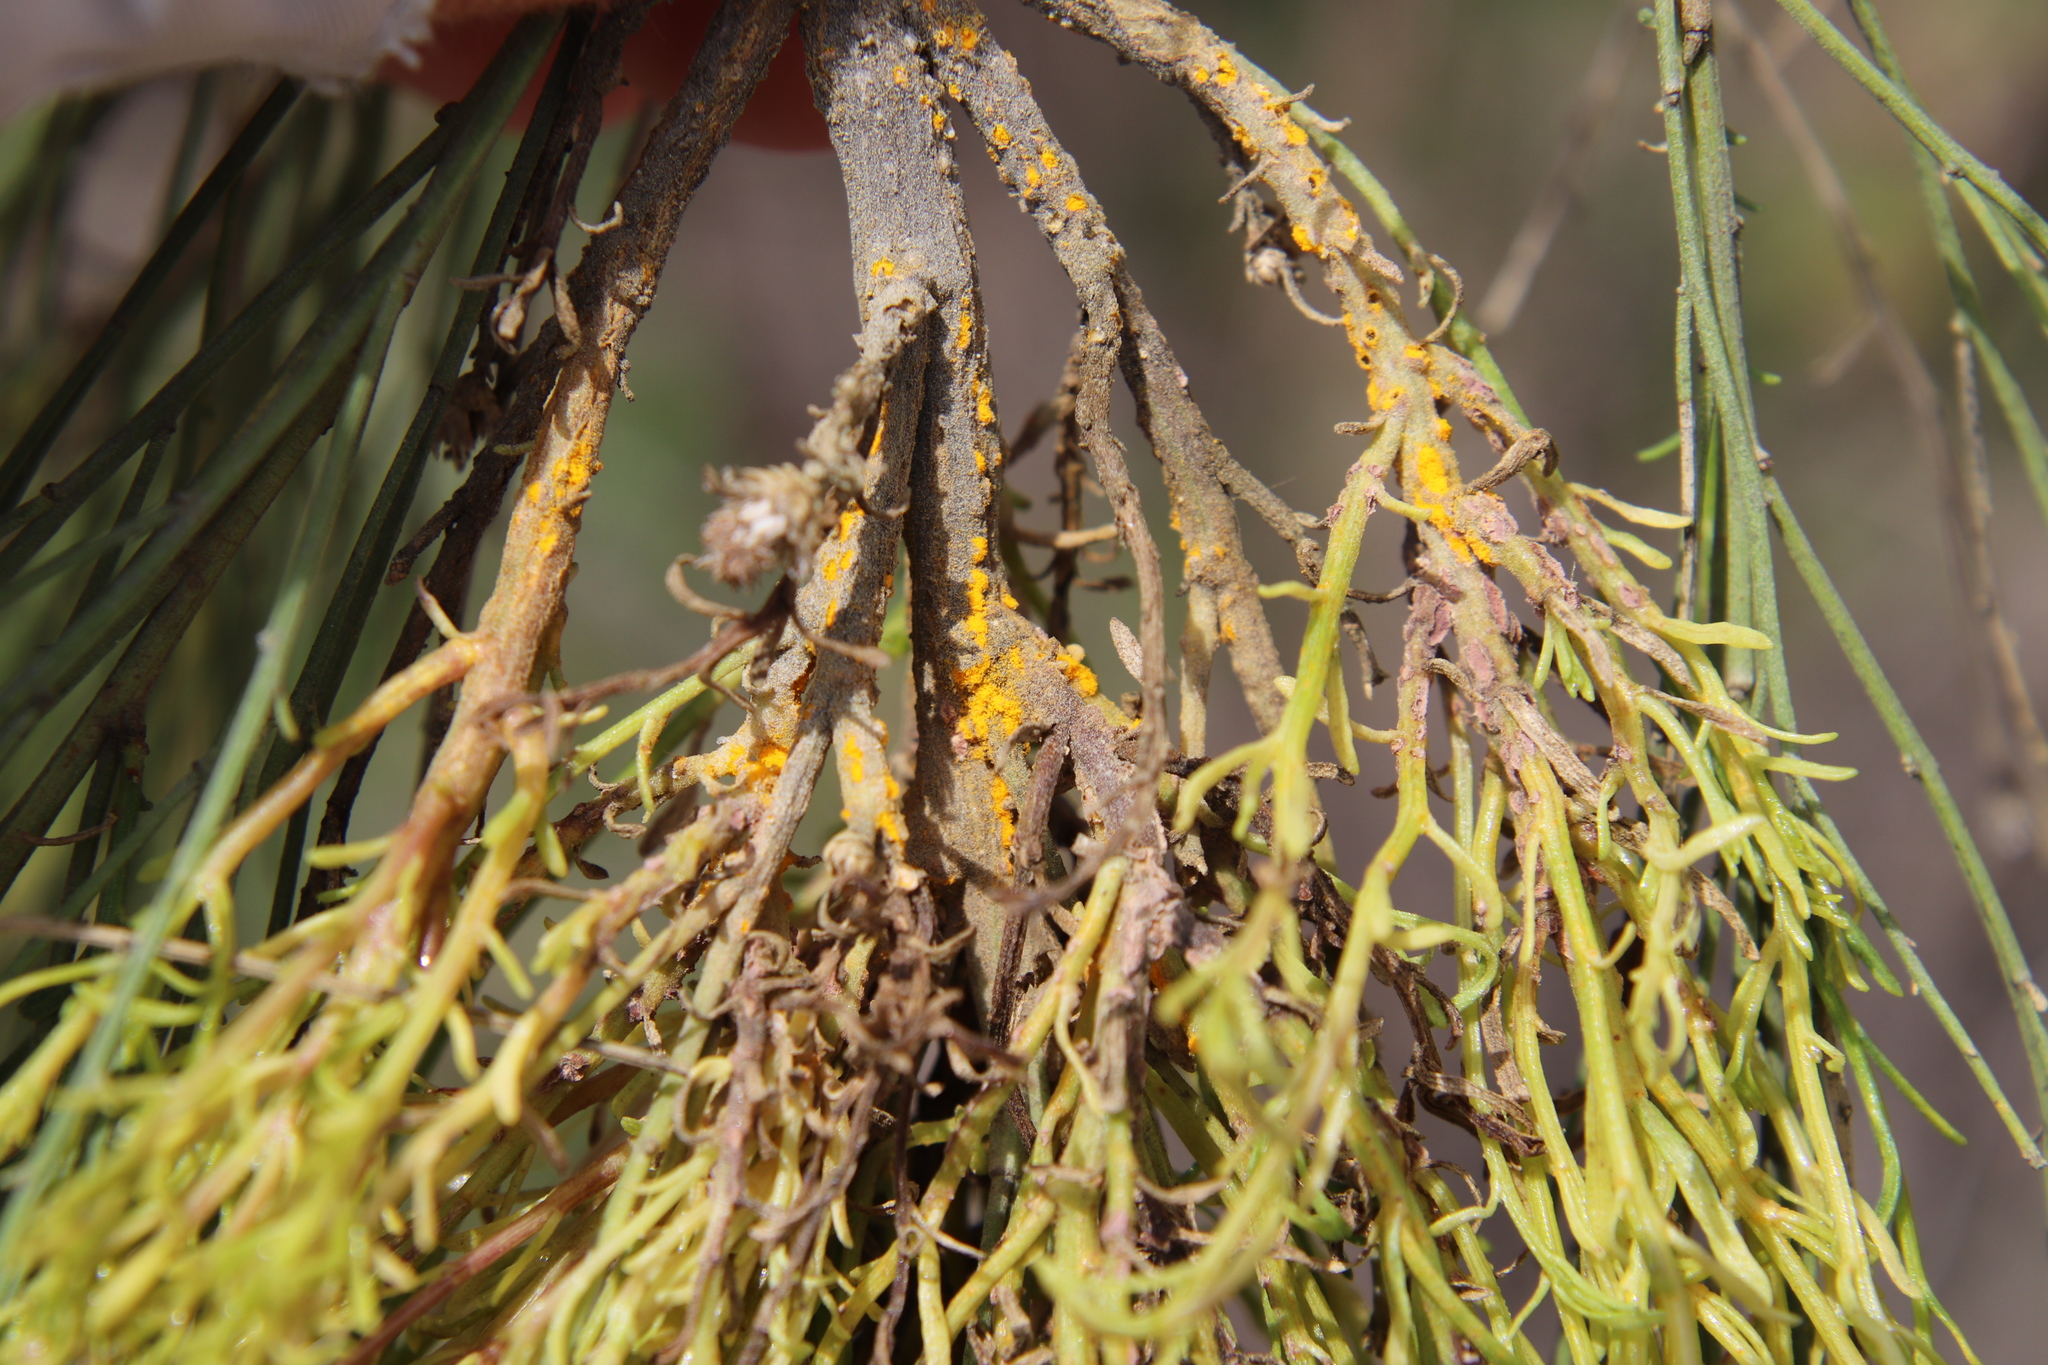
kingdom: Fungi
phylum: Basidiomycota
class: Pucciniomycetes
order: Pucciniales
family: Pucciniaceae
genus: Eriosporangium
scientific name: Eriosporangium evadens
